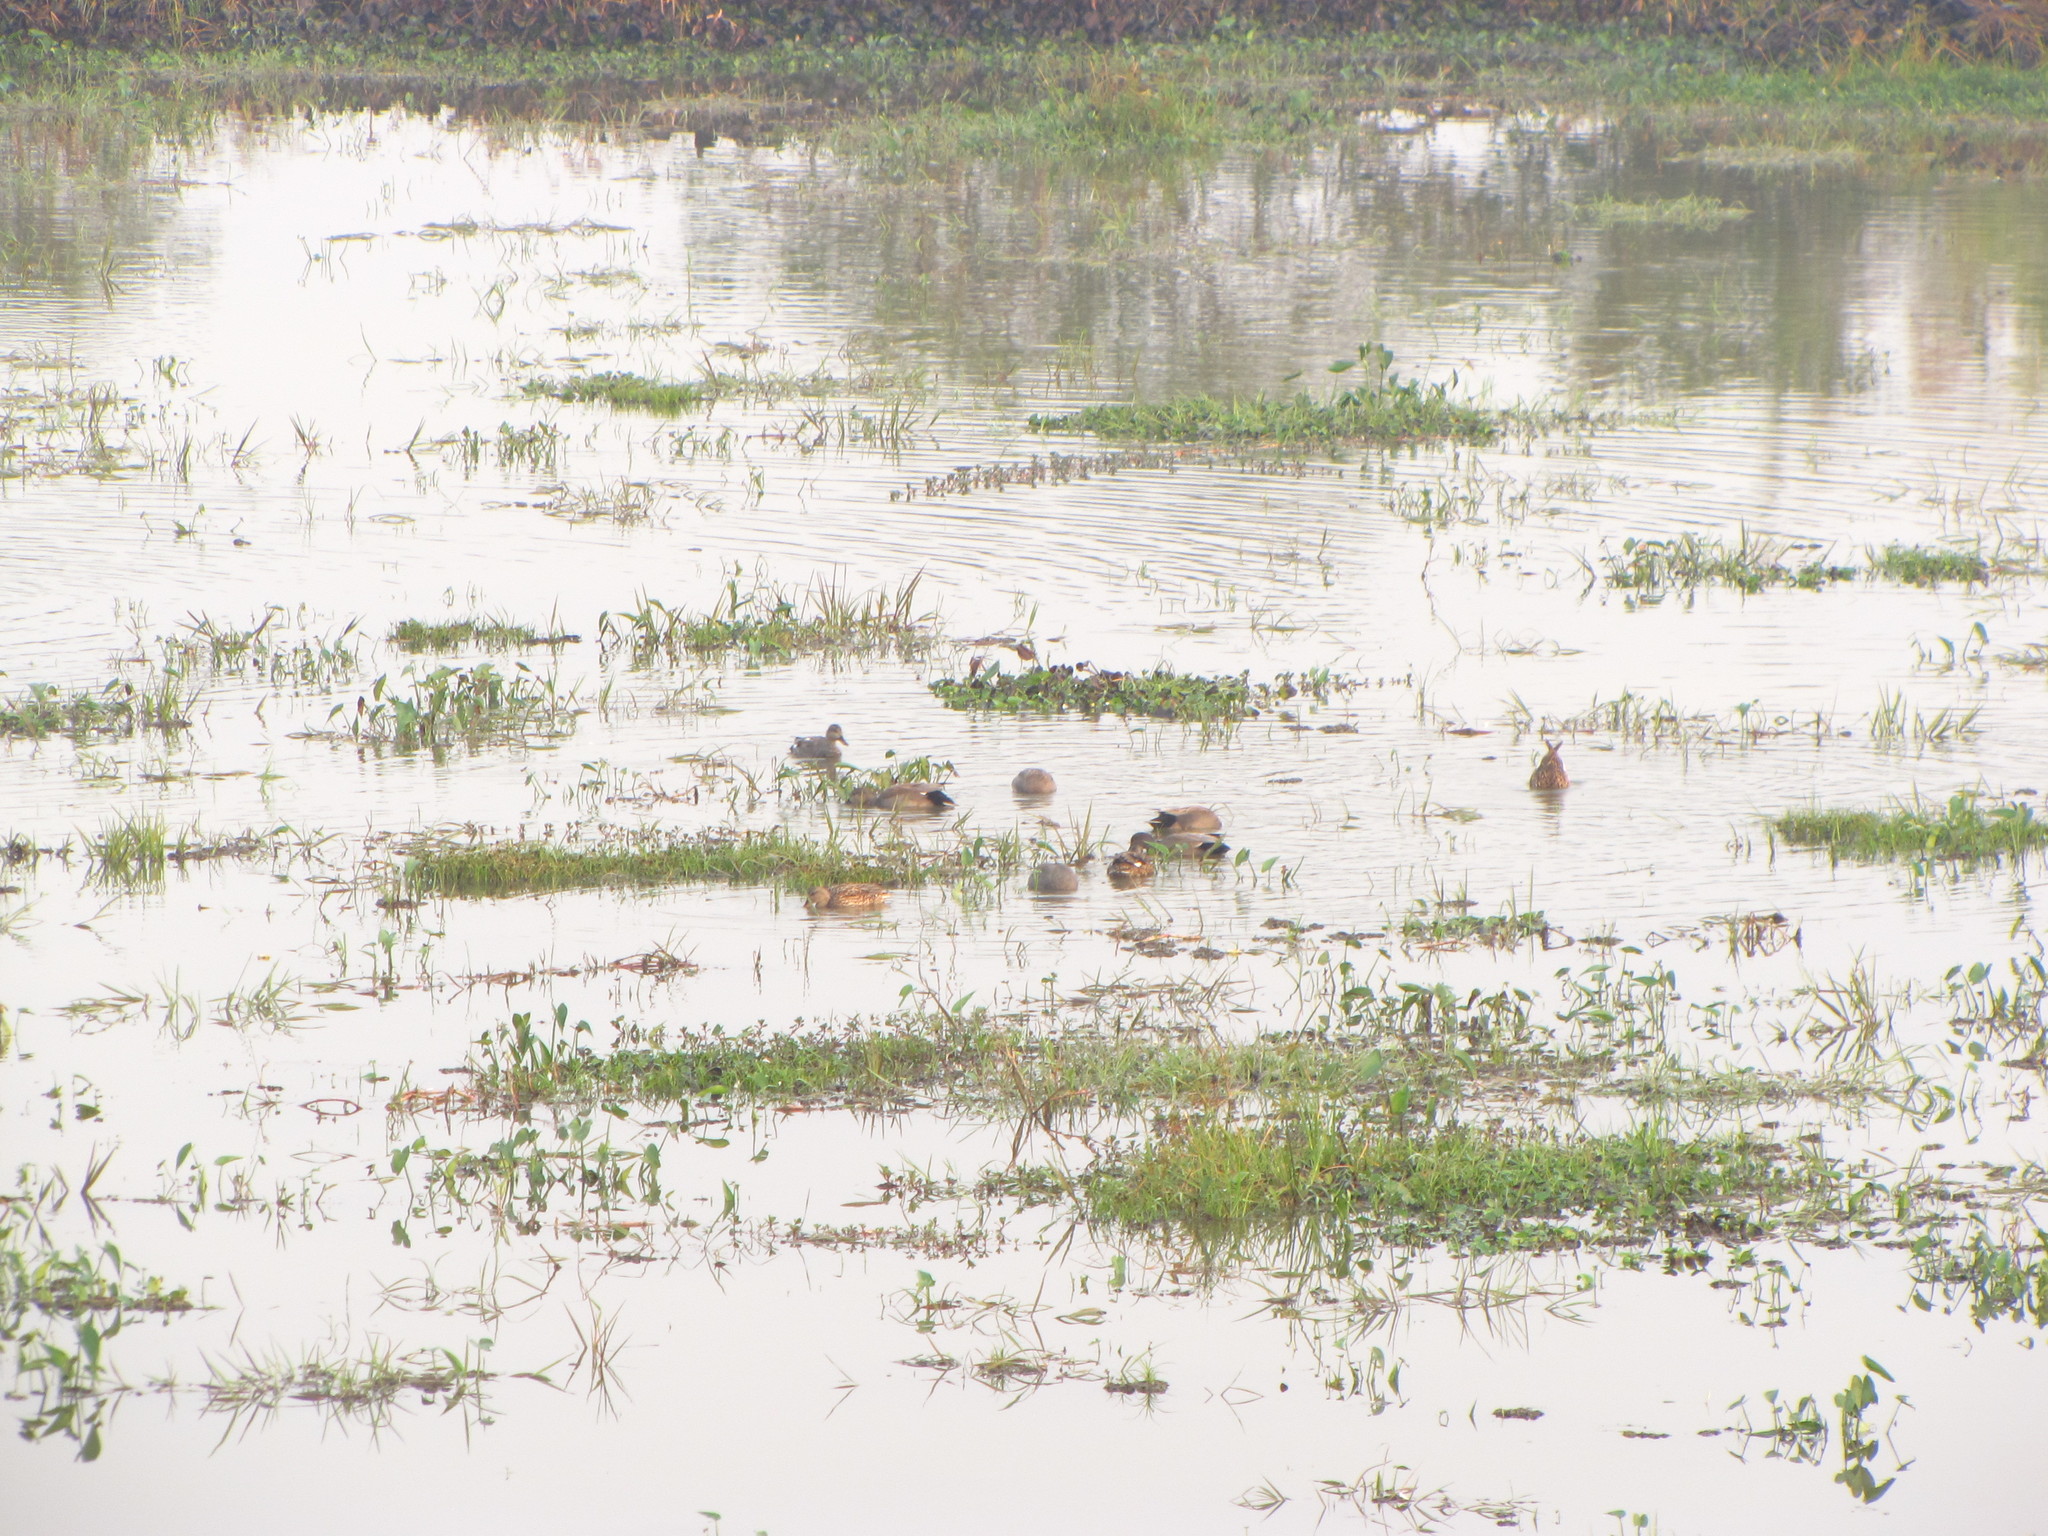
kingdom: Animalia
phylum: Chordata
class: Aves
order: Anseriformes
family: Anatidae
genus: Mareca
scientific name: Mareca strepera
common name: Gadwall
